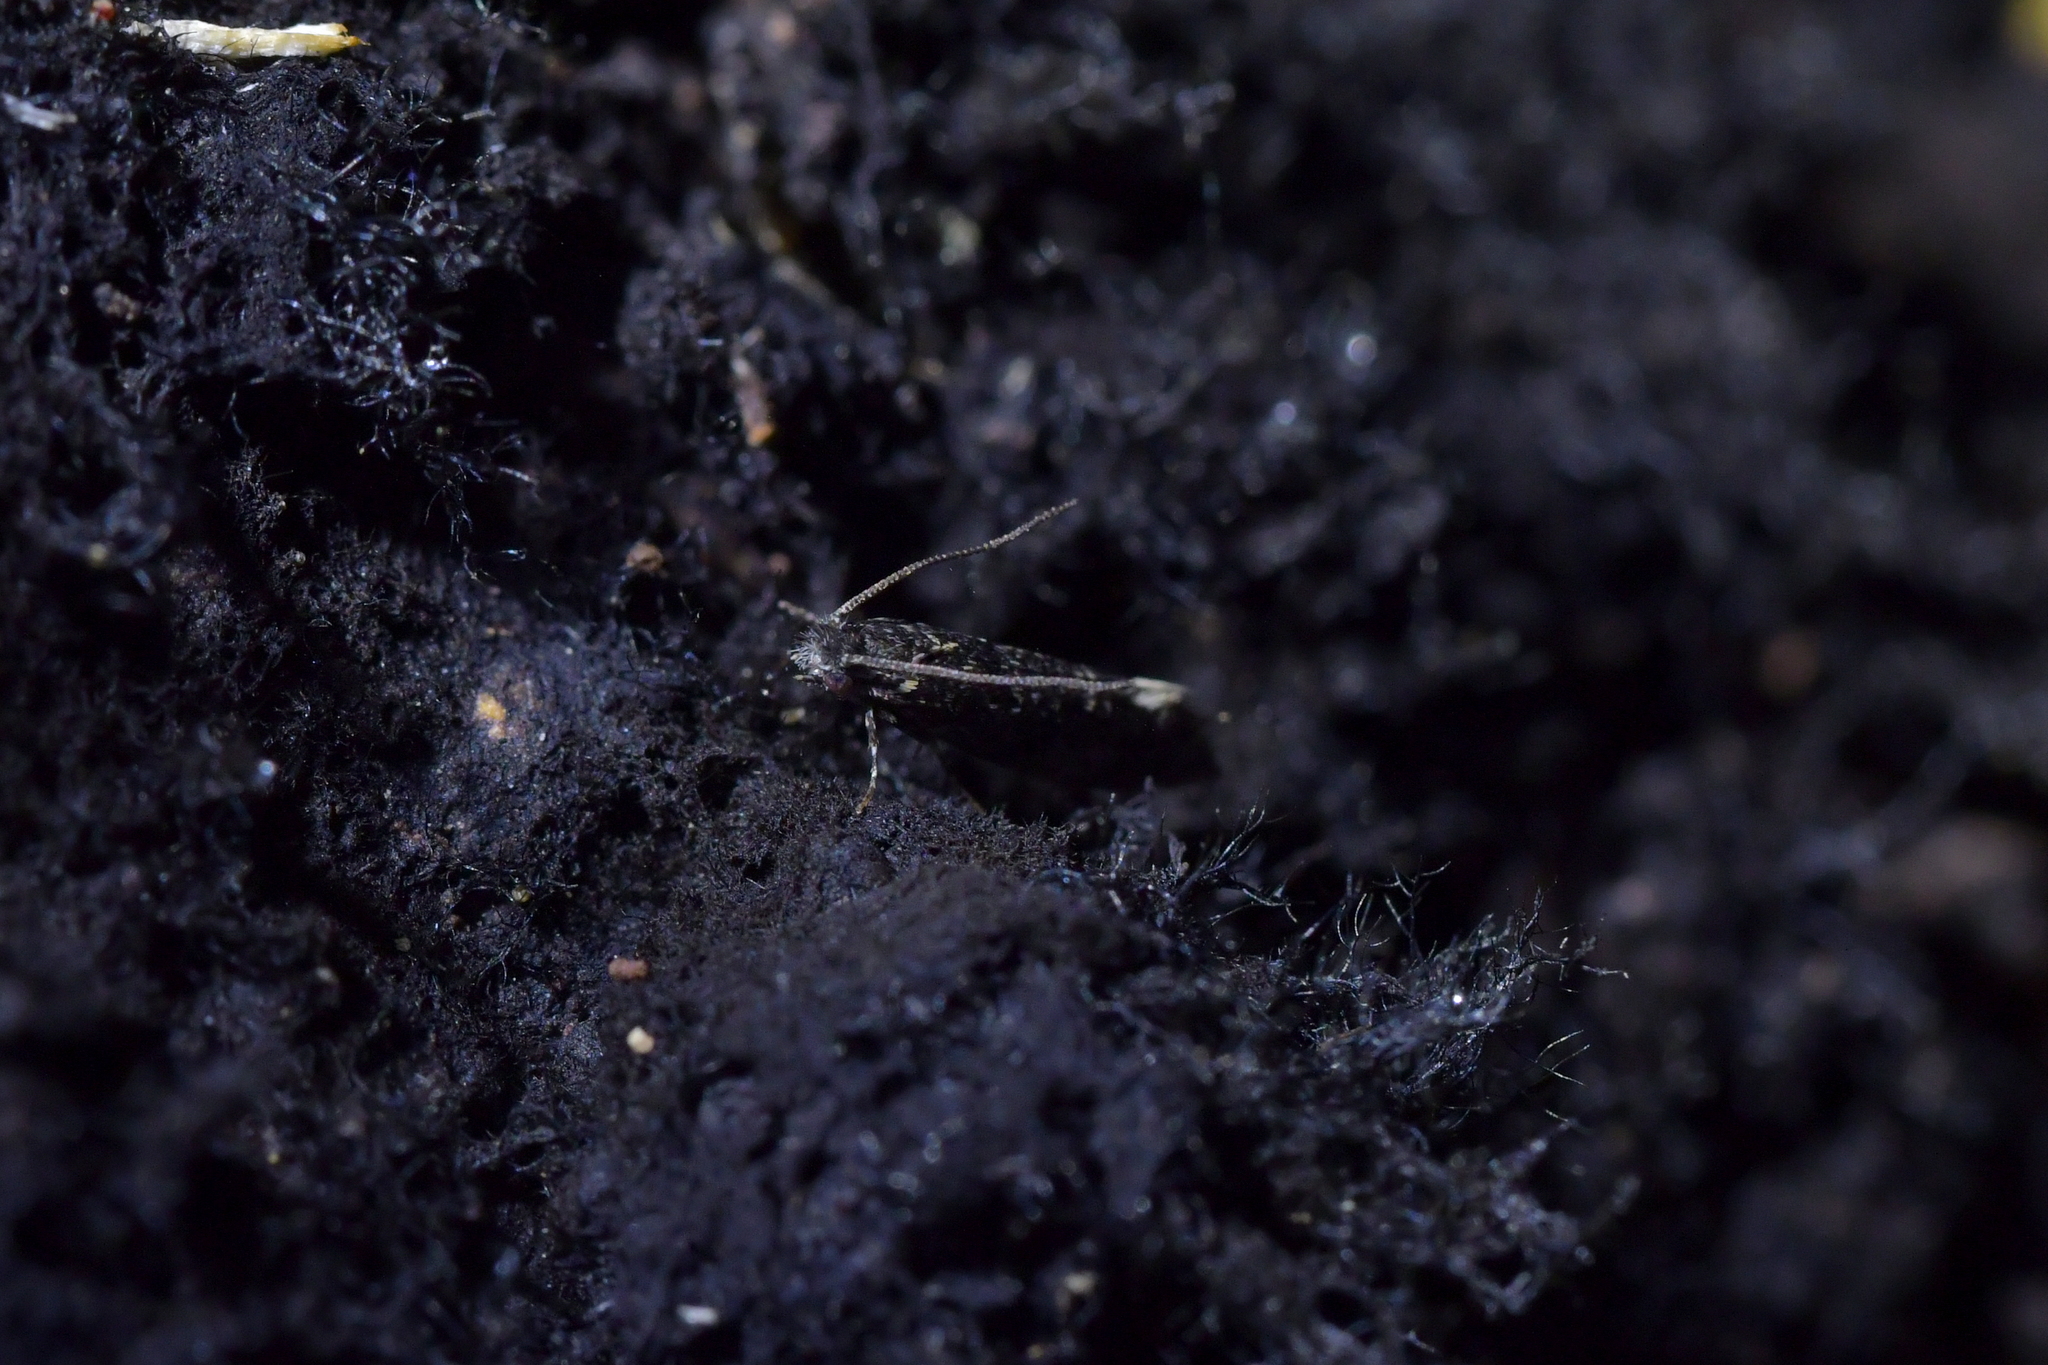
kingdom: Animalia
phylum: Arthropoda
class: Insecta
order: Lepidoptera
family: Tineidae
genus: Tinea
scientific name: Tinea fagicola
